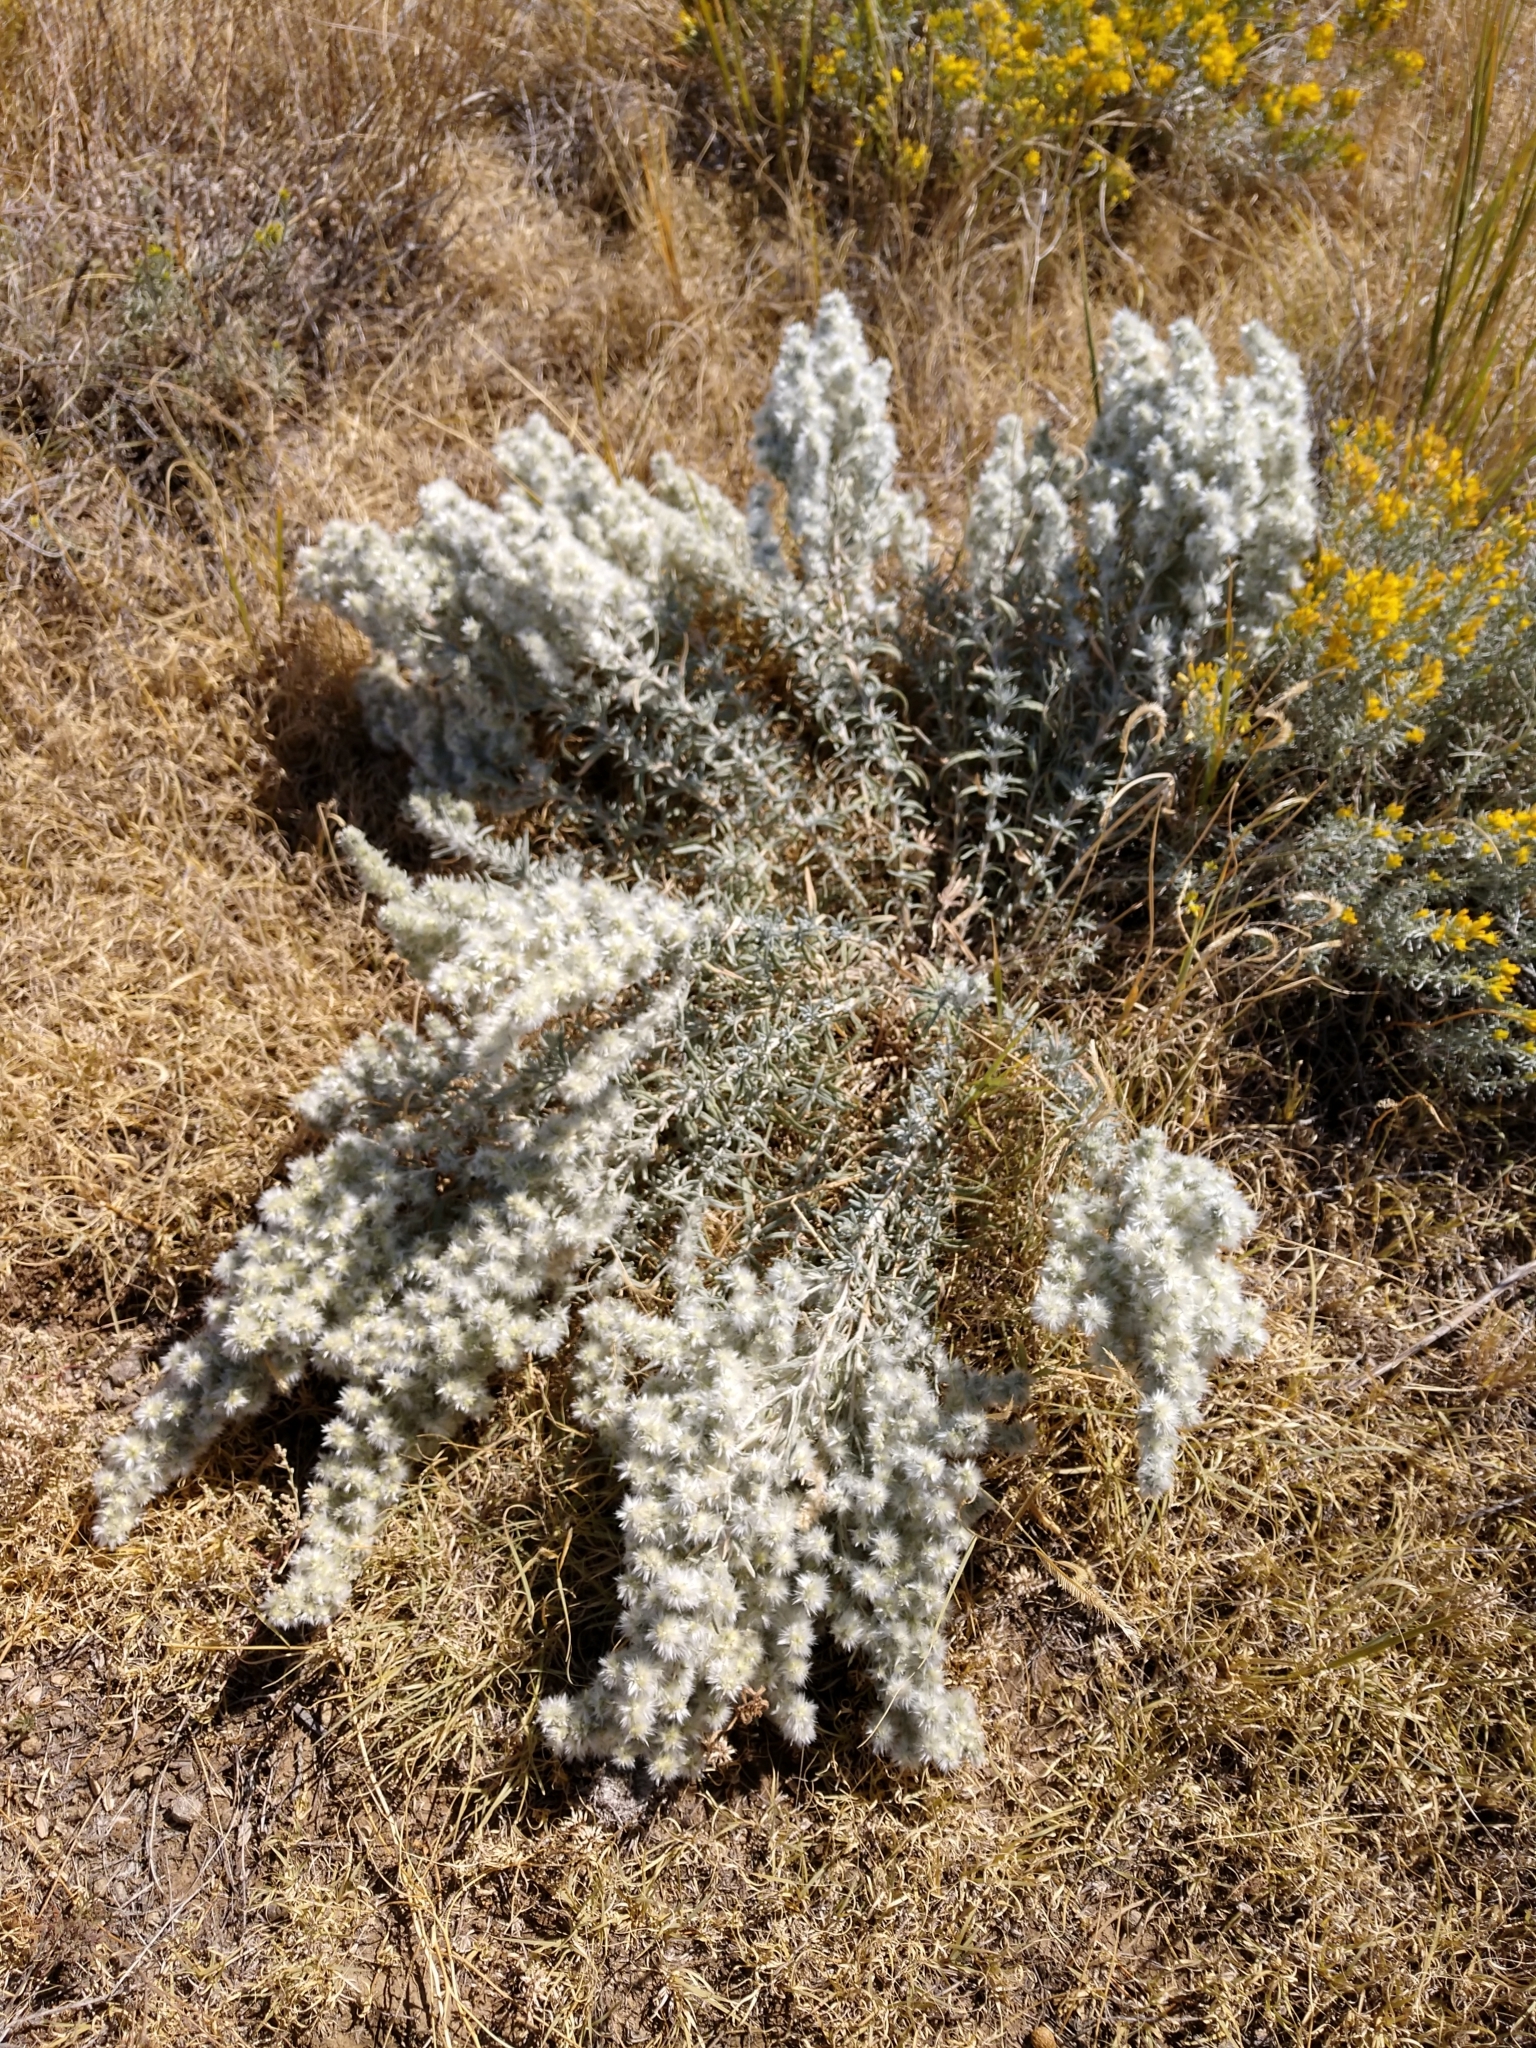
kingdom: Plantae
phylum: Tracheophyta
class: Magnoliopsida
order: Caryophyllales
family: Amaranthaceae
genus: Krascheninnikovia
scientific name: Krascheninnikovia lanata
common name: Winterfat
